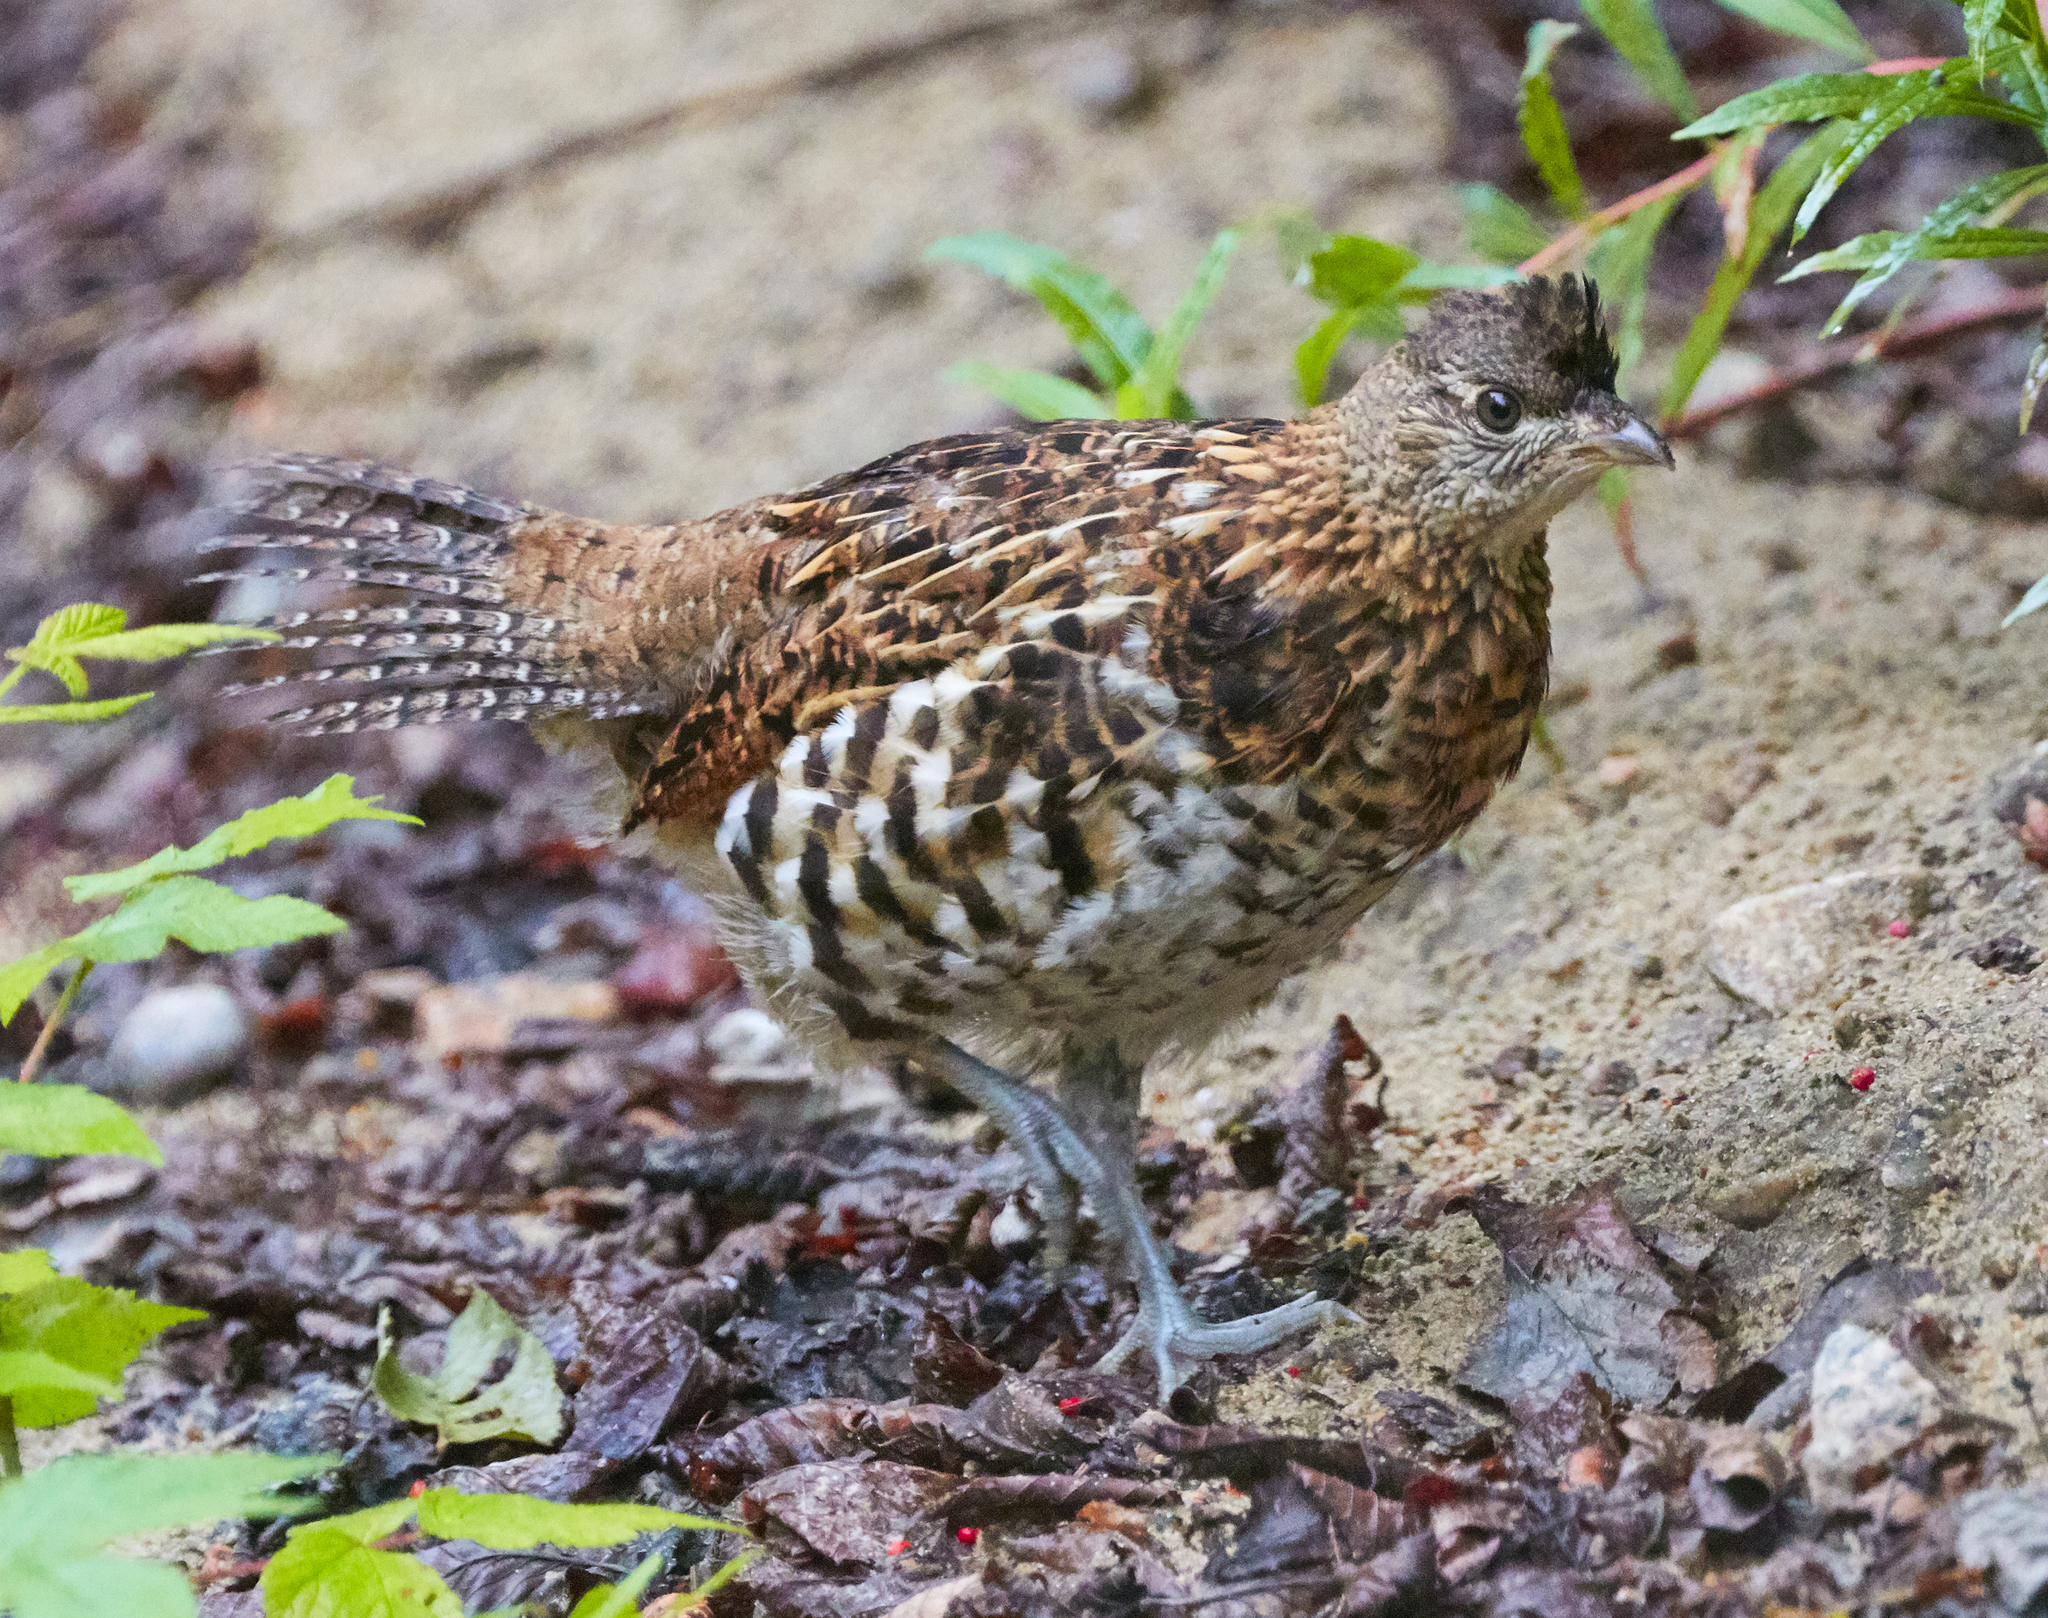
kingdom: Animalia
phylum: Chordata
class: Aves
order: Galliformes
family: Phasianidae
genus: Bonasa
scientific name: Bonasa umbellus
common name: Ruffed grouse
